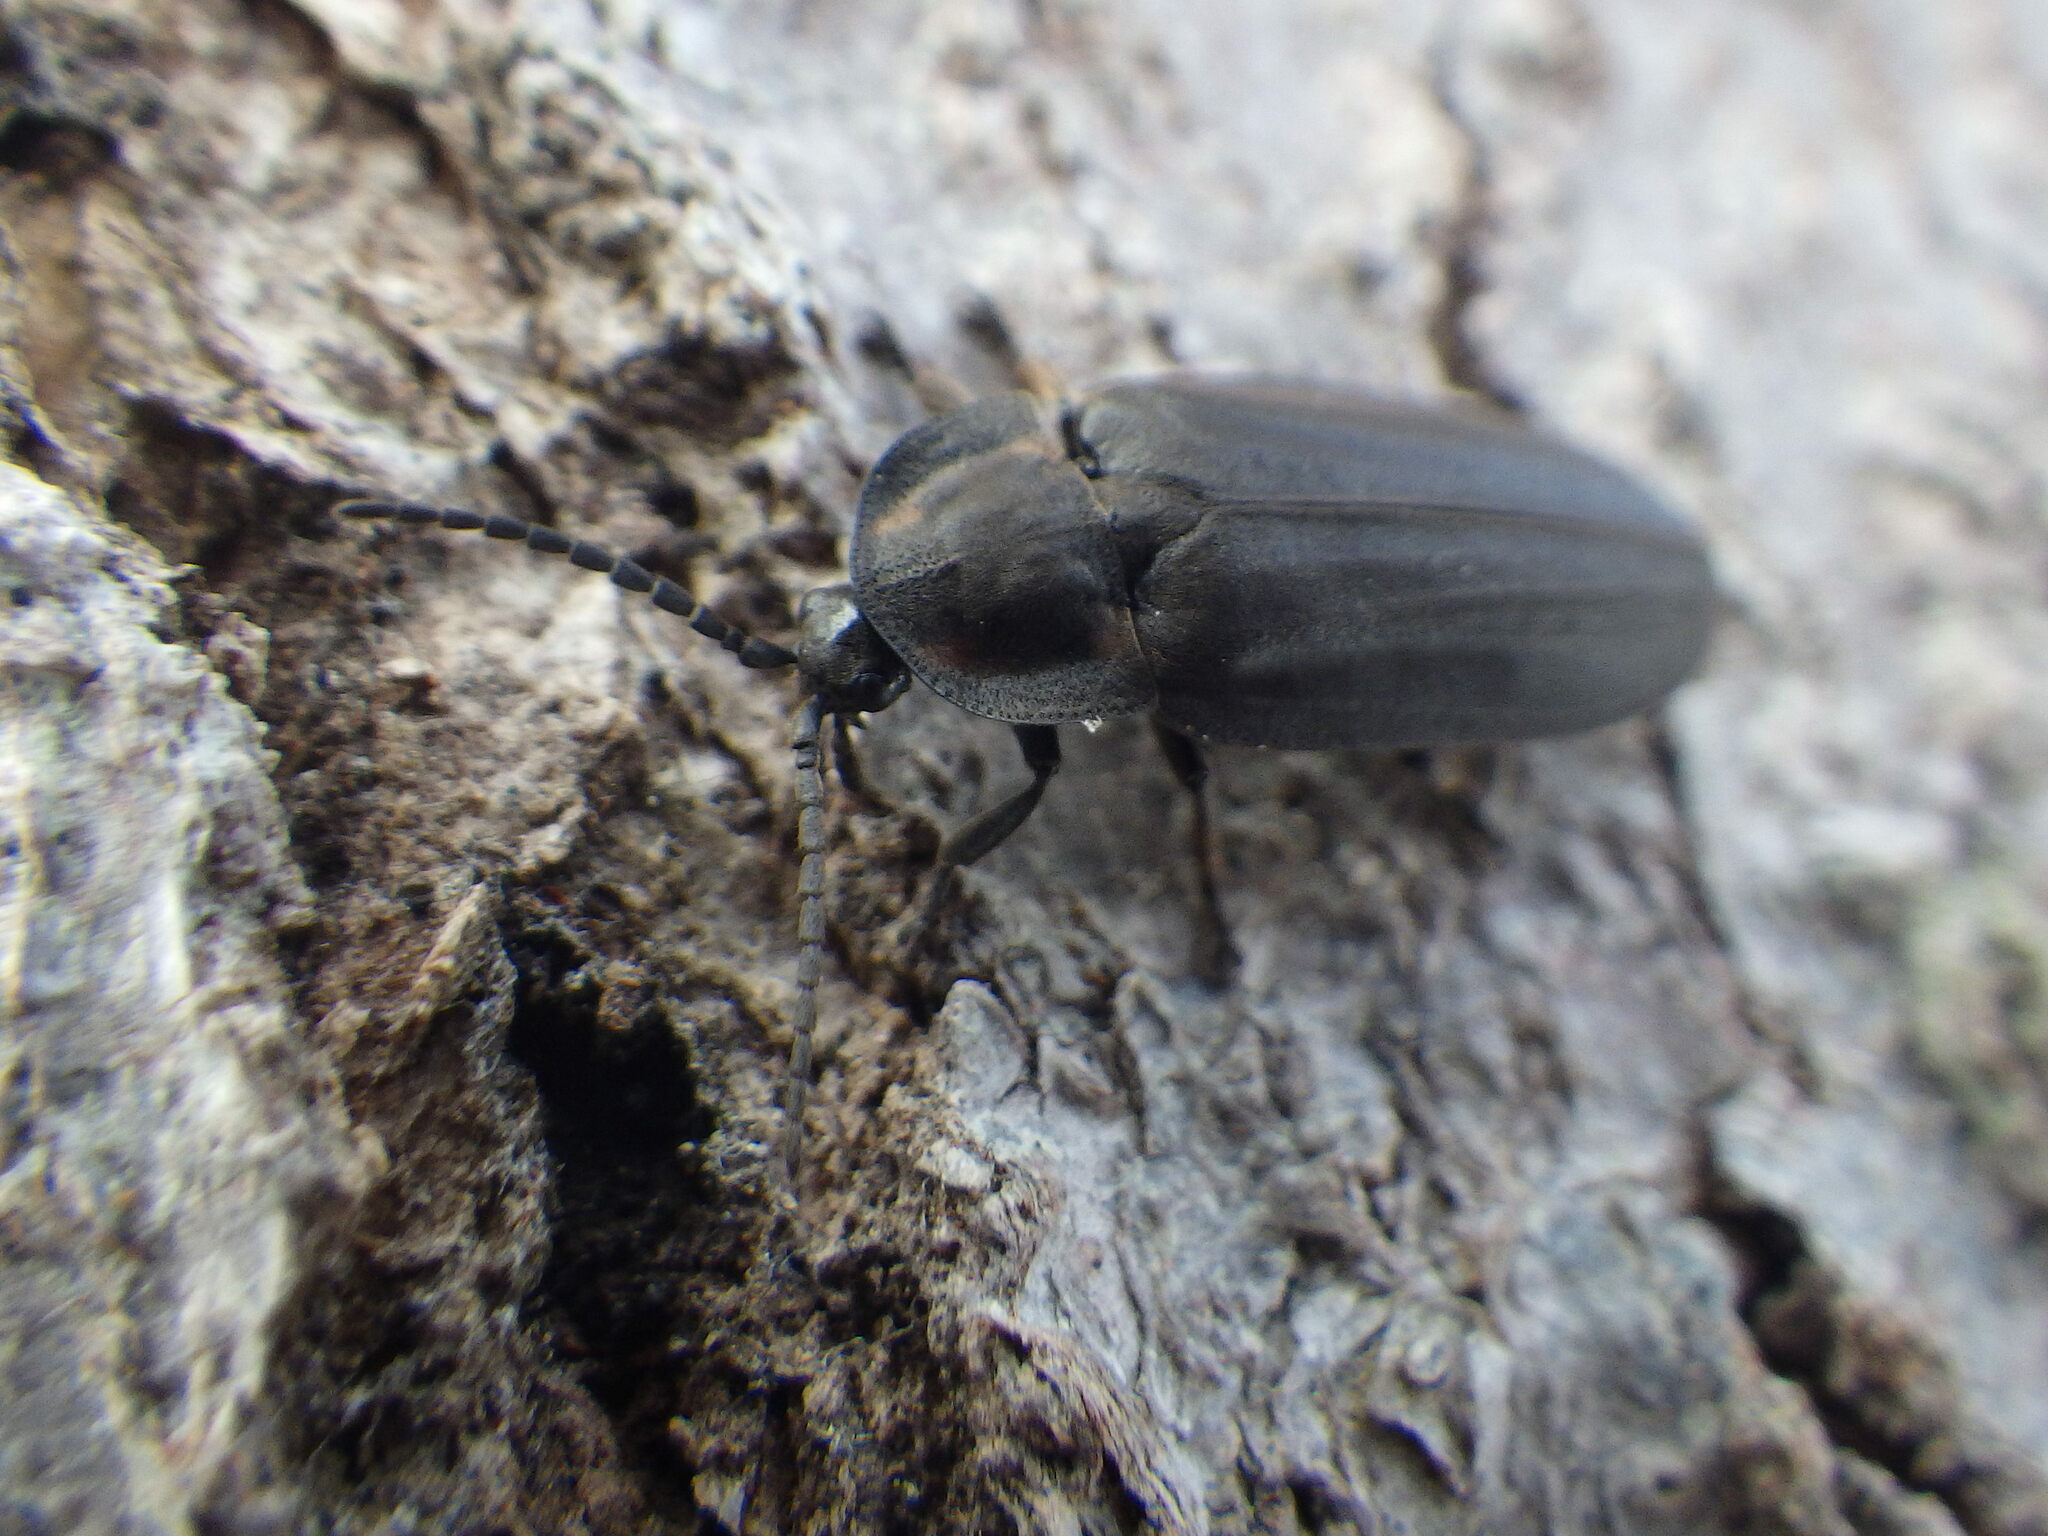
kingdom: Animalia
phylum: Arthropoda
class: Insecta
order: Coleoptera
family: Lampyridae
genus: Photinus
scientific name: Photinus corrusca
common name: Winter firefly
